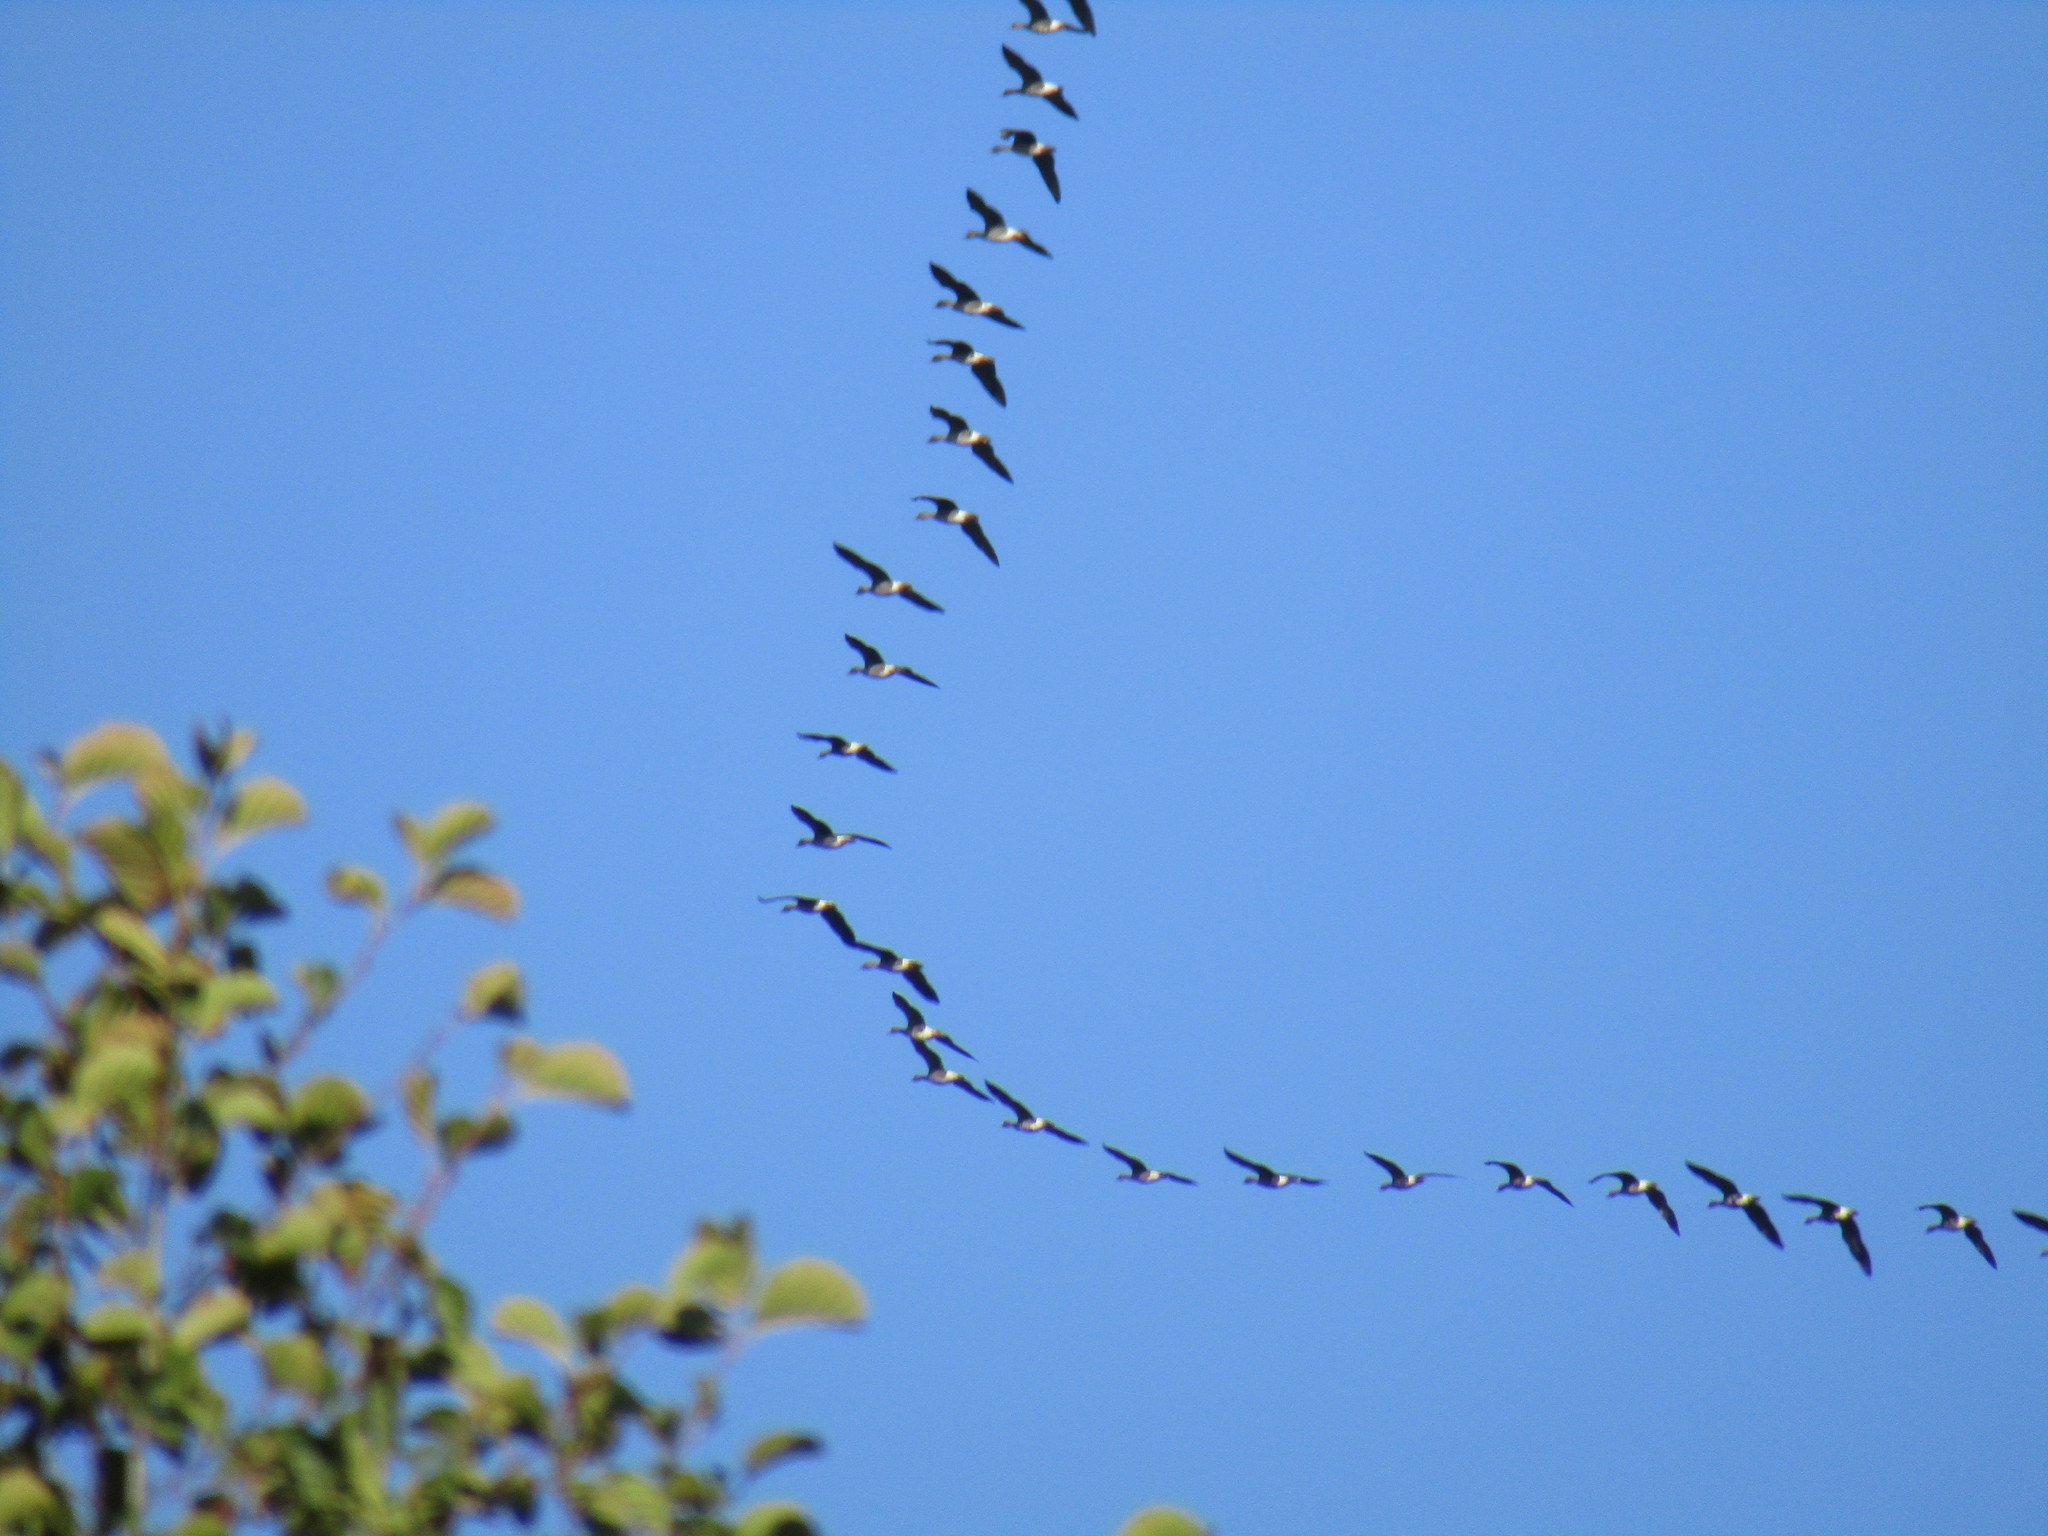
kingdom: Animalia
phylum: Chordata
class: Aves
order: Anseriformes
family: Anatidae
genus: Anser
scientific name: Anser fabalis
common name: Bean goose
